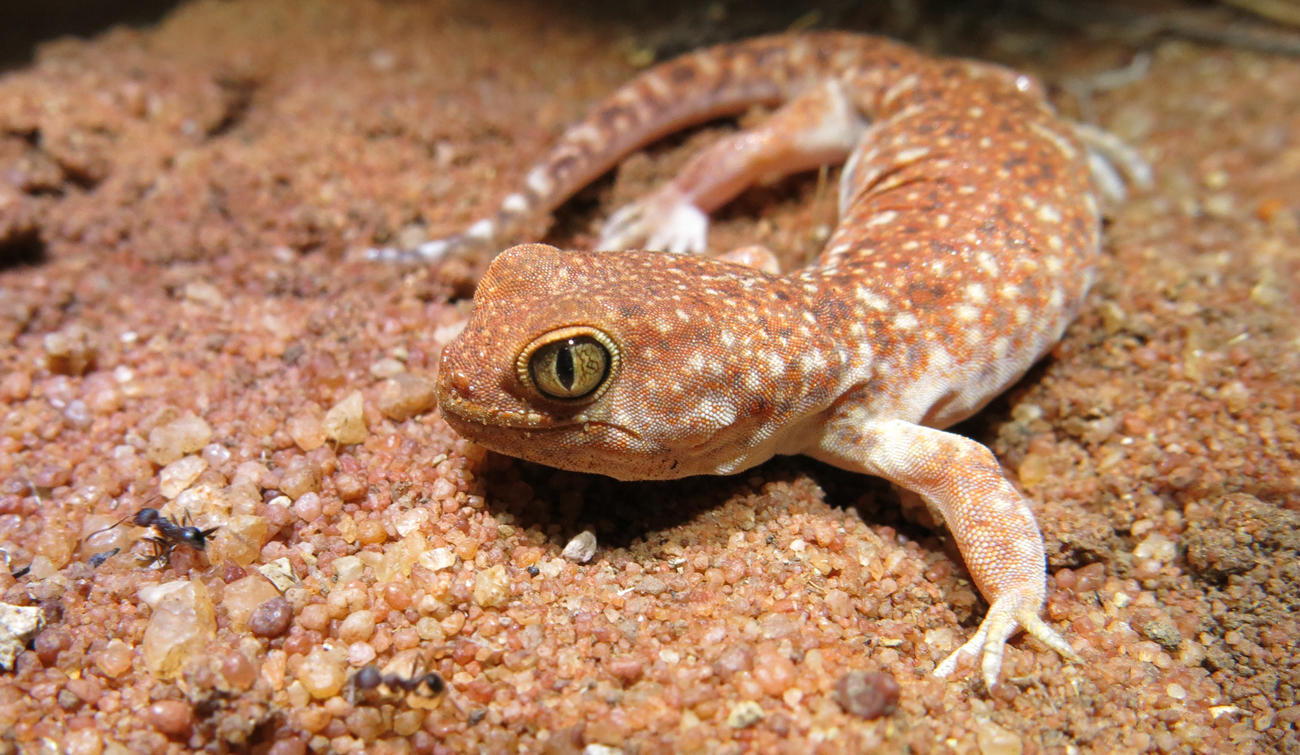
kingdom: Animalia
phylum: Chordata
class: Squamata
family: Gekkonidae
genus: Ptenopus
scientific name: Ptenopus garrulus
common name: Whistling gecko
